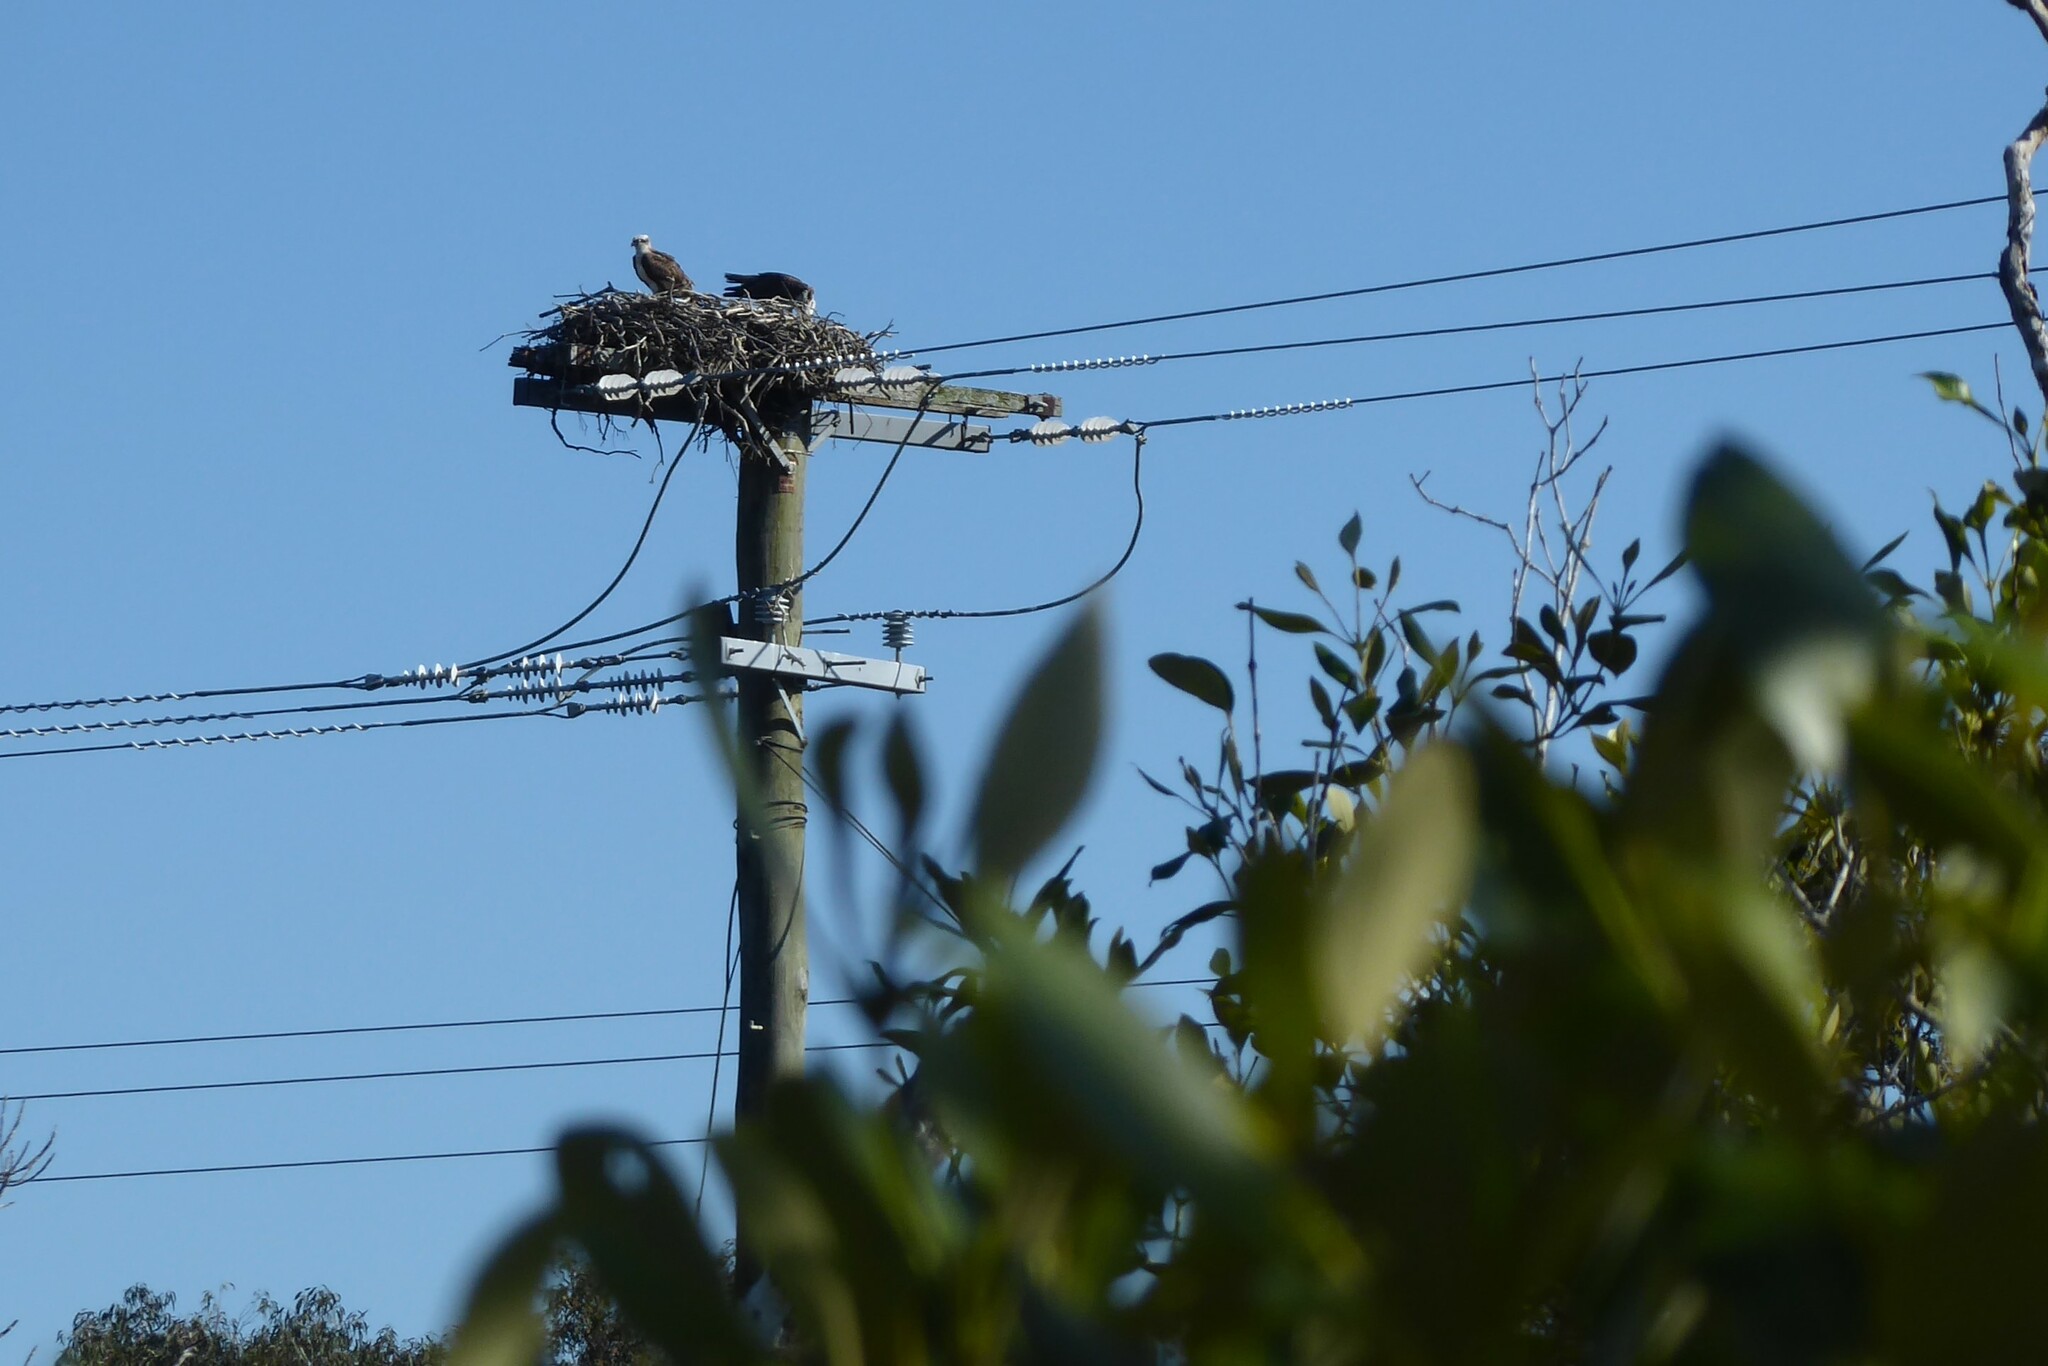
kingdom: Animalia
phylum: Chordata
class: Aves
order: Accipitriformes
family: Pandionidae
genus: Pandion
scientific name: Pandion cristatus
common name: Eastern osprey
